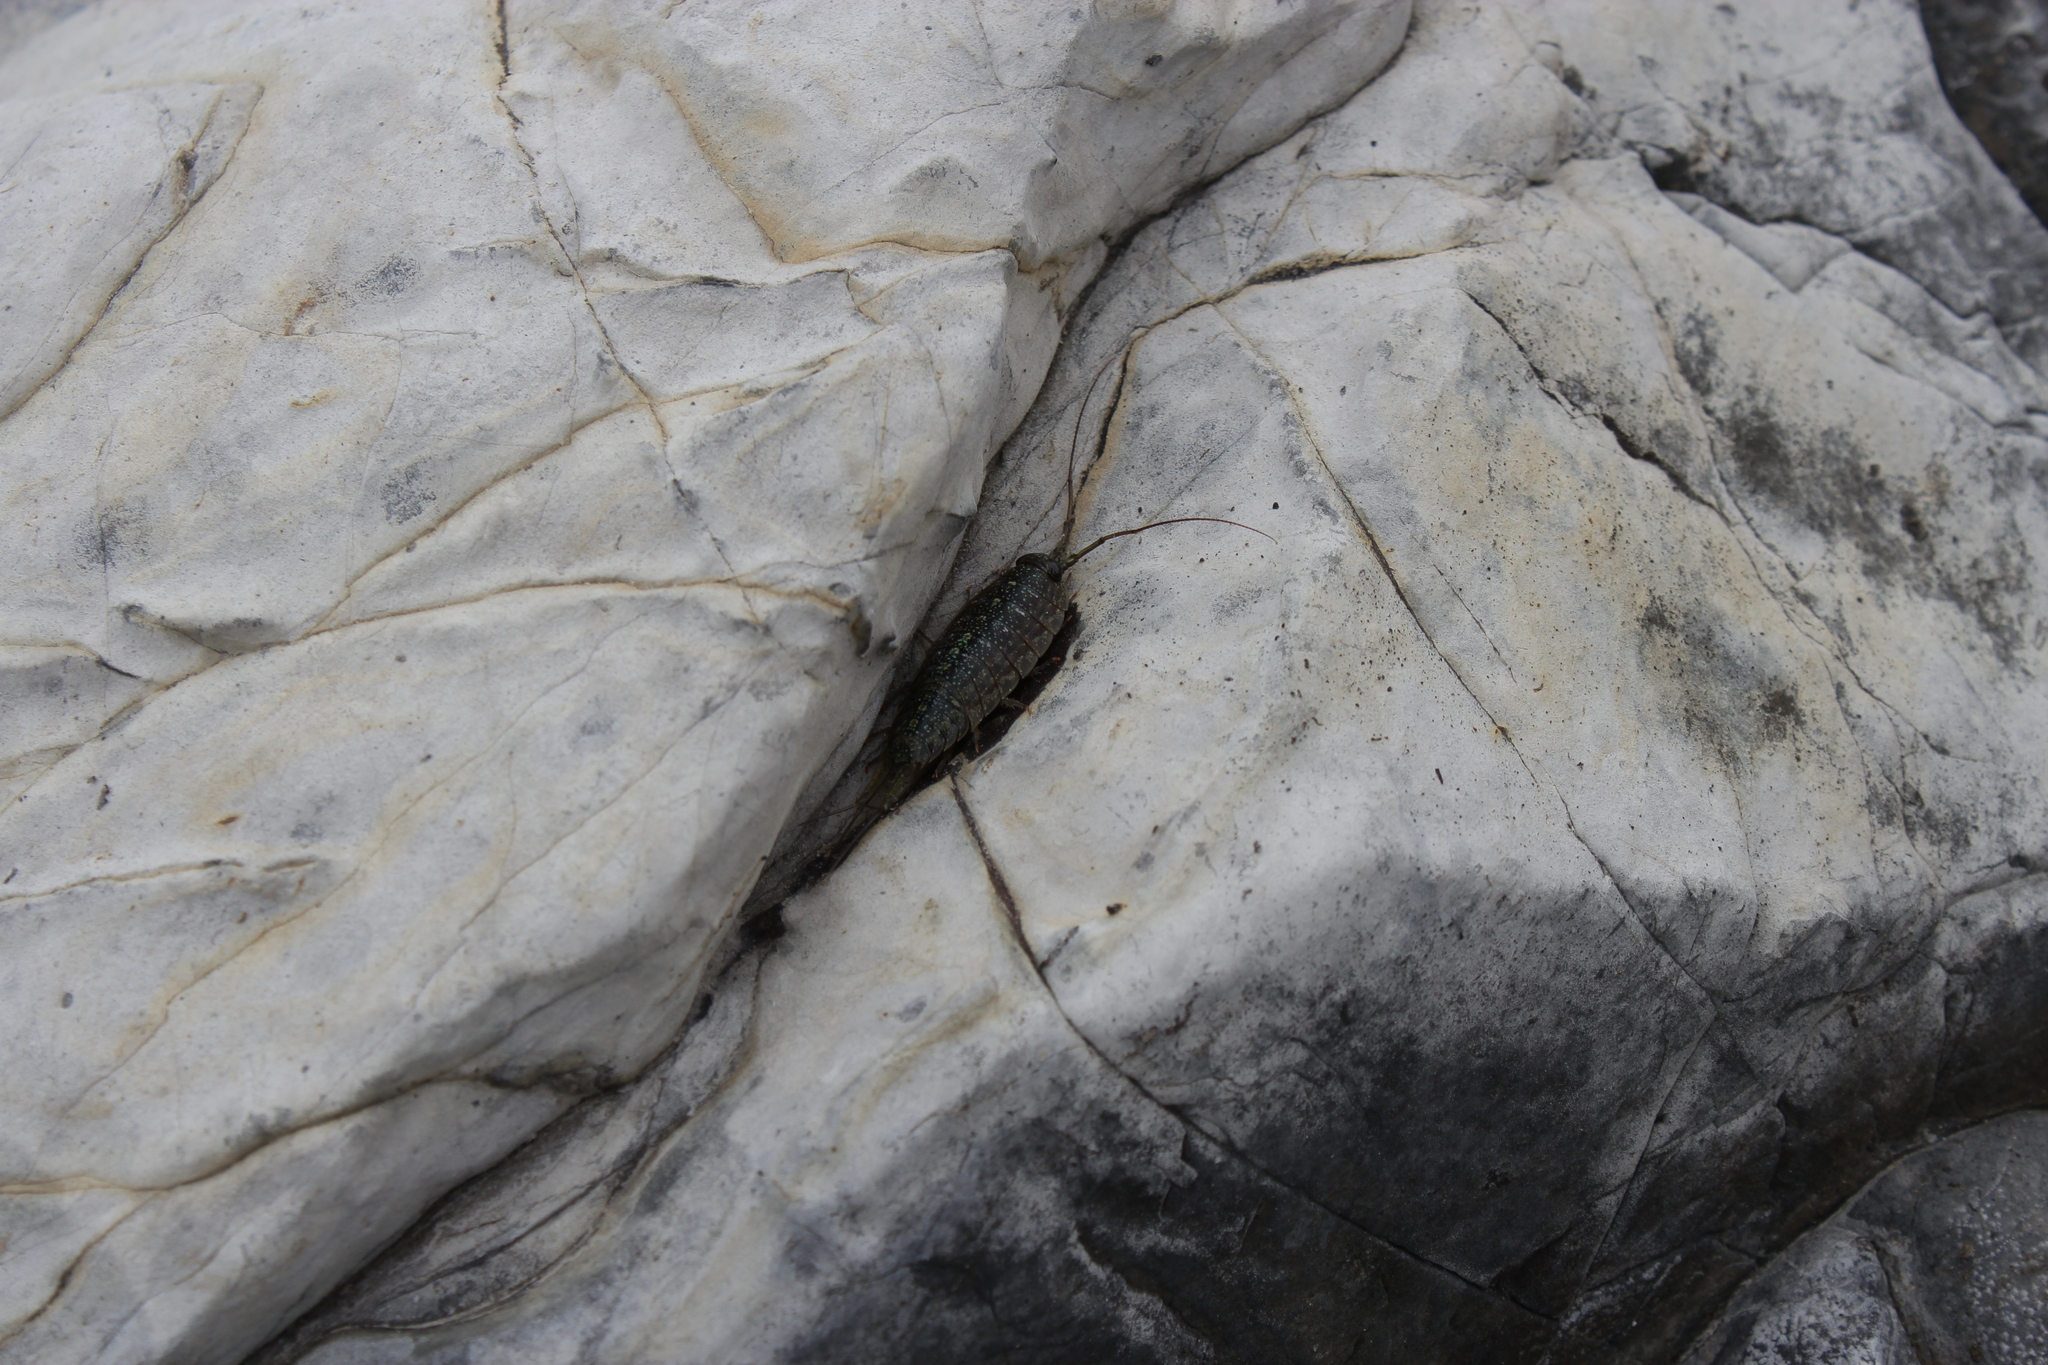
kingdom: Animalia
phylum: Arthropoda
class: Malacostraca
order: Isopoda
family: Ligiidae
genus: Ligia
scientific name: Ligia exotica
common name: Wharf roach
